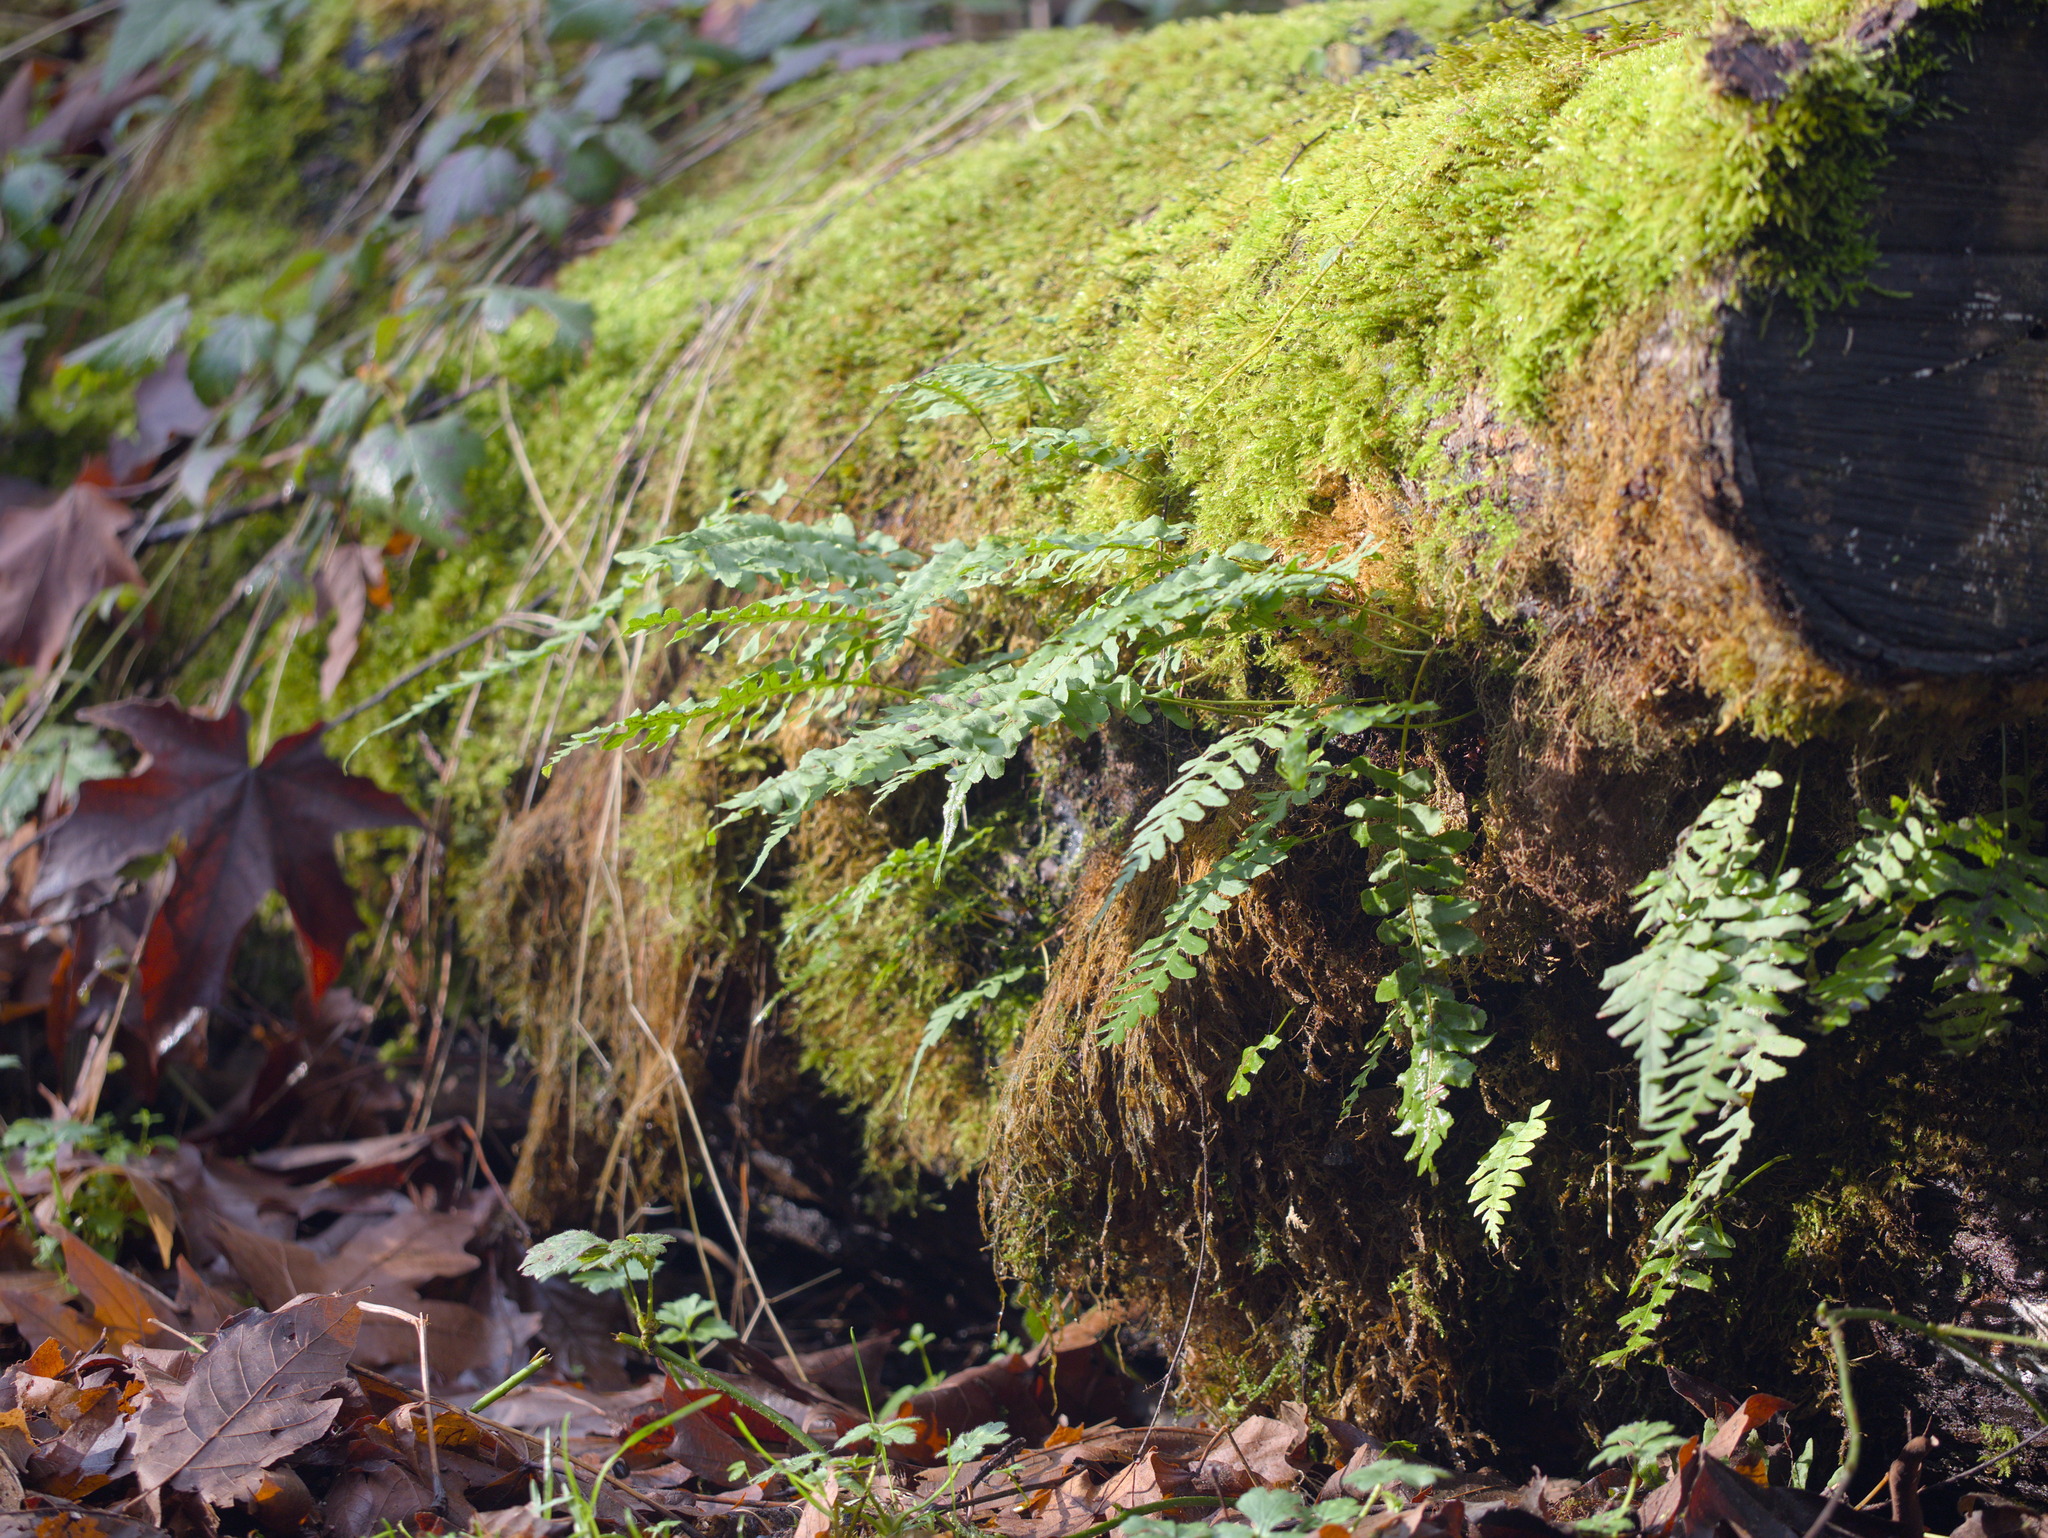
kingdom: Plantae
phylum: Tracheophyta
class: Polypodiopsida
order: Polypodiales
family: Polypodiaceae
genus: Polypodium
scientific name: Polypodium glycyrrhiza
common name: Licorice fern
